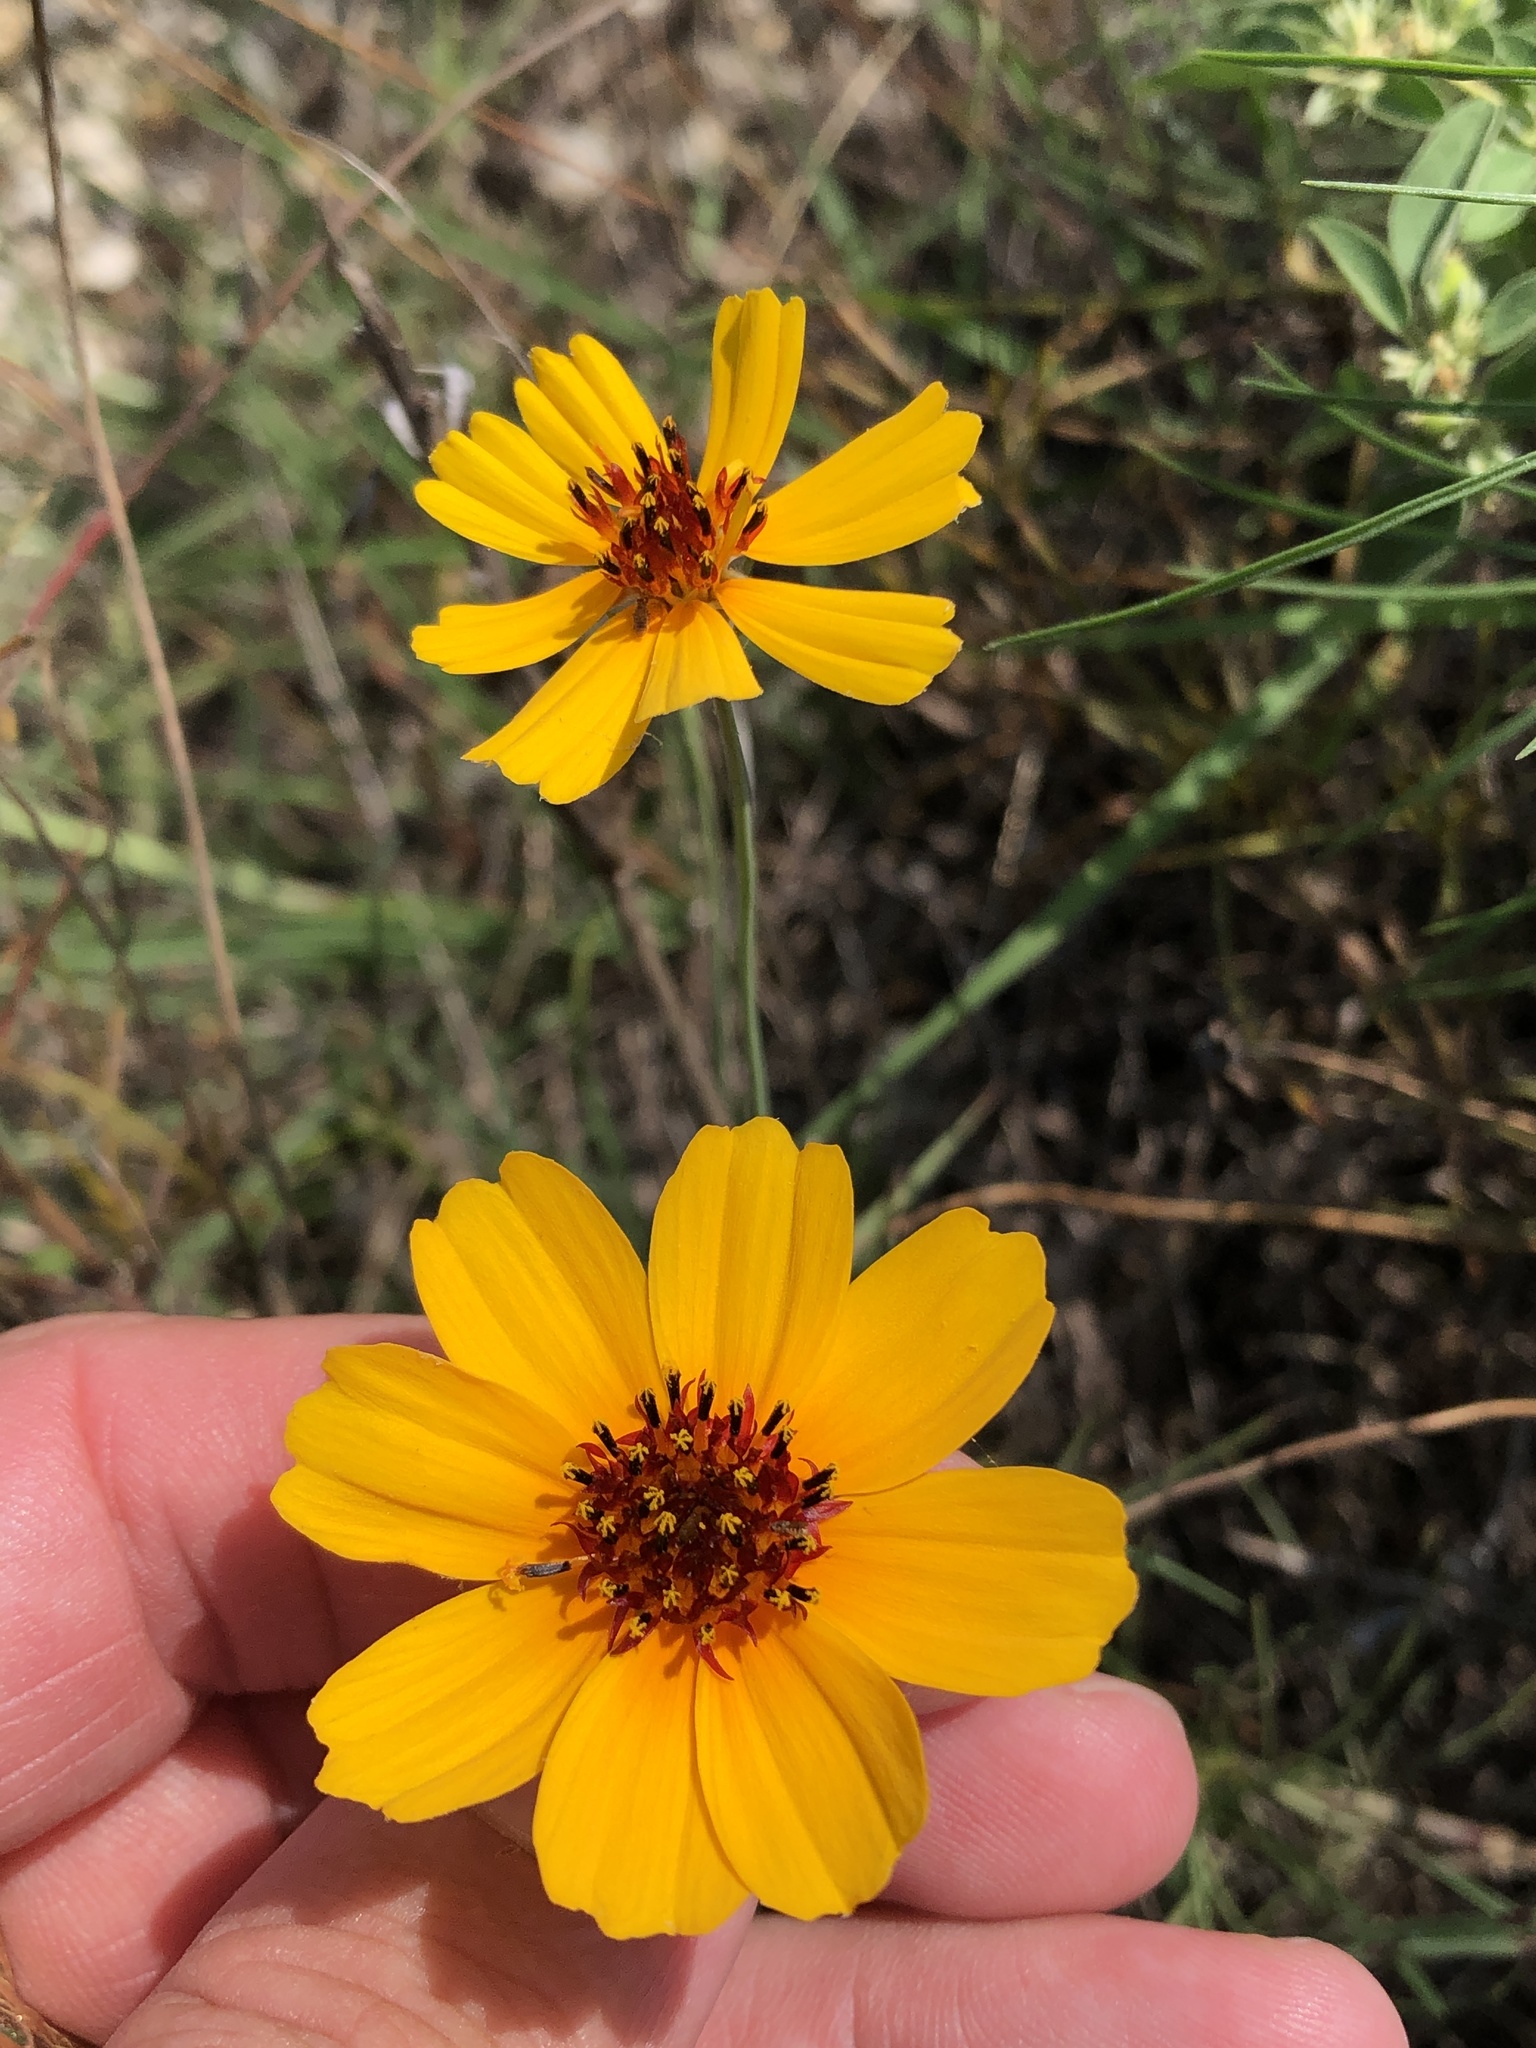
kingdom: Plantae
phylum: Tracheophyta
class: Magnoliopsida
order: Asterales
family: Asteraceae
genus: Thelesperma
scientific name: Thelesperma filifolium
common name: Stiff greenthread
